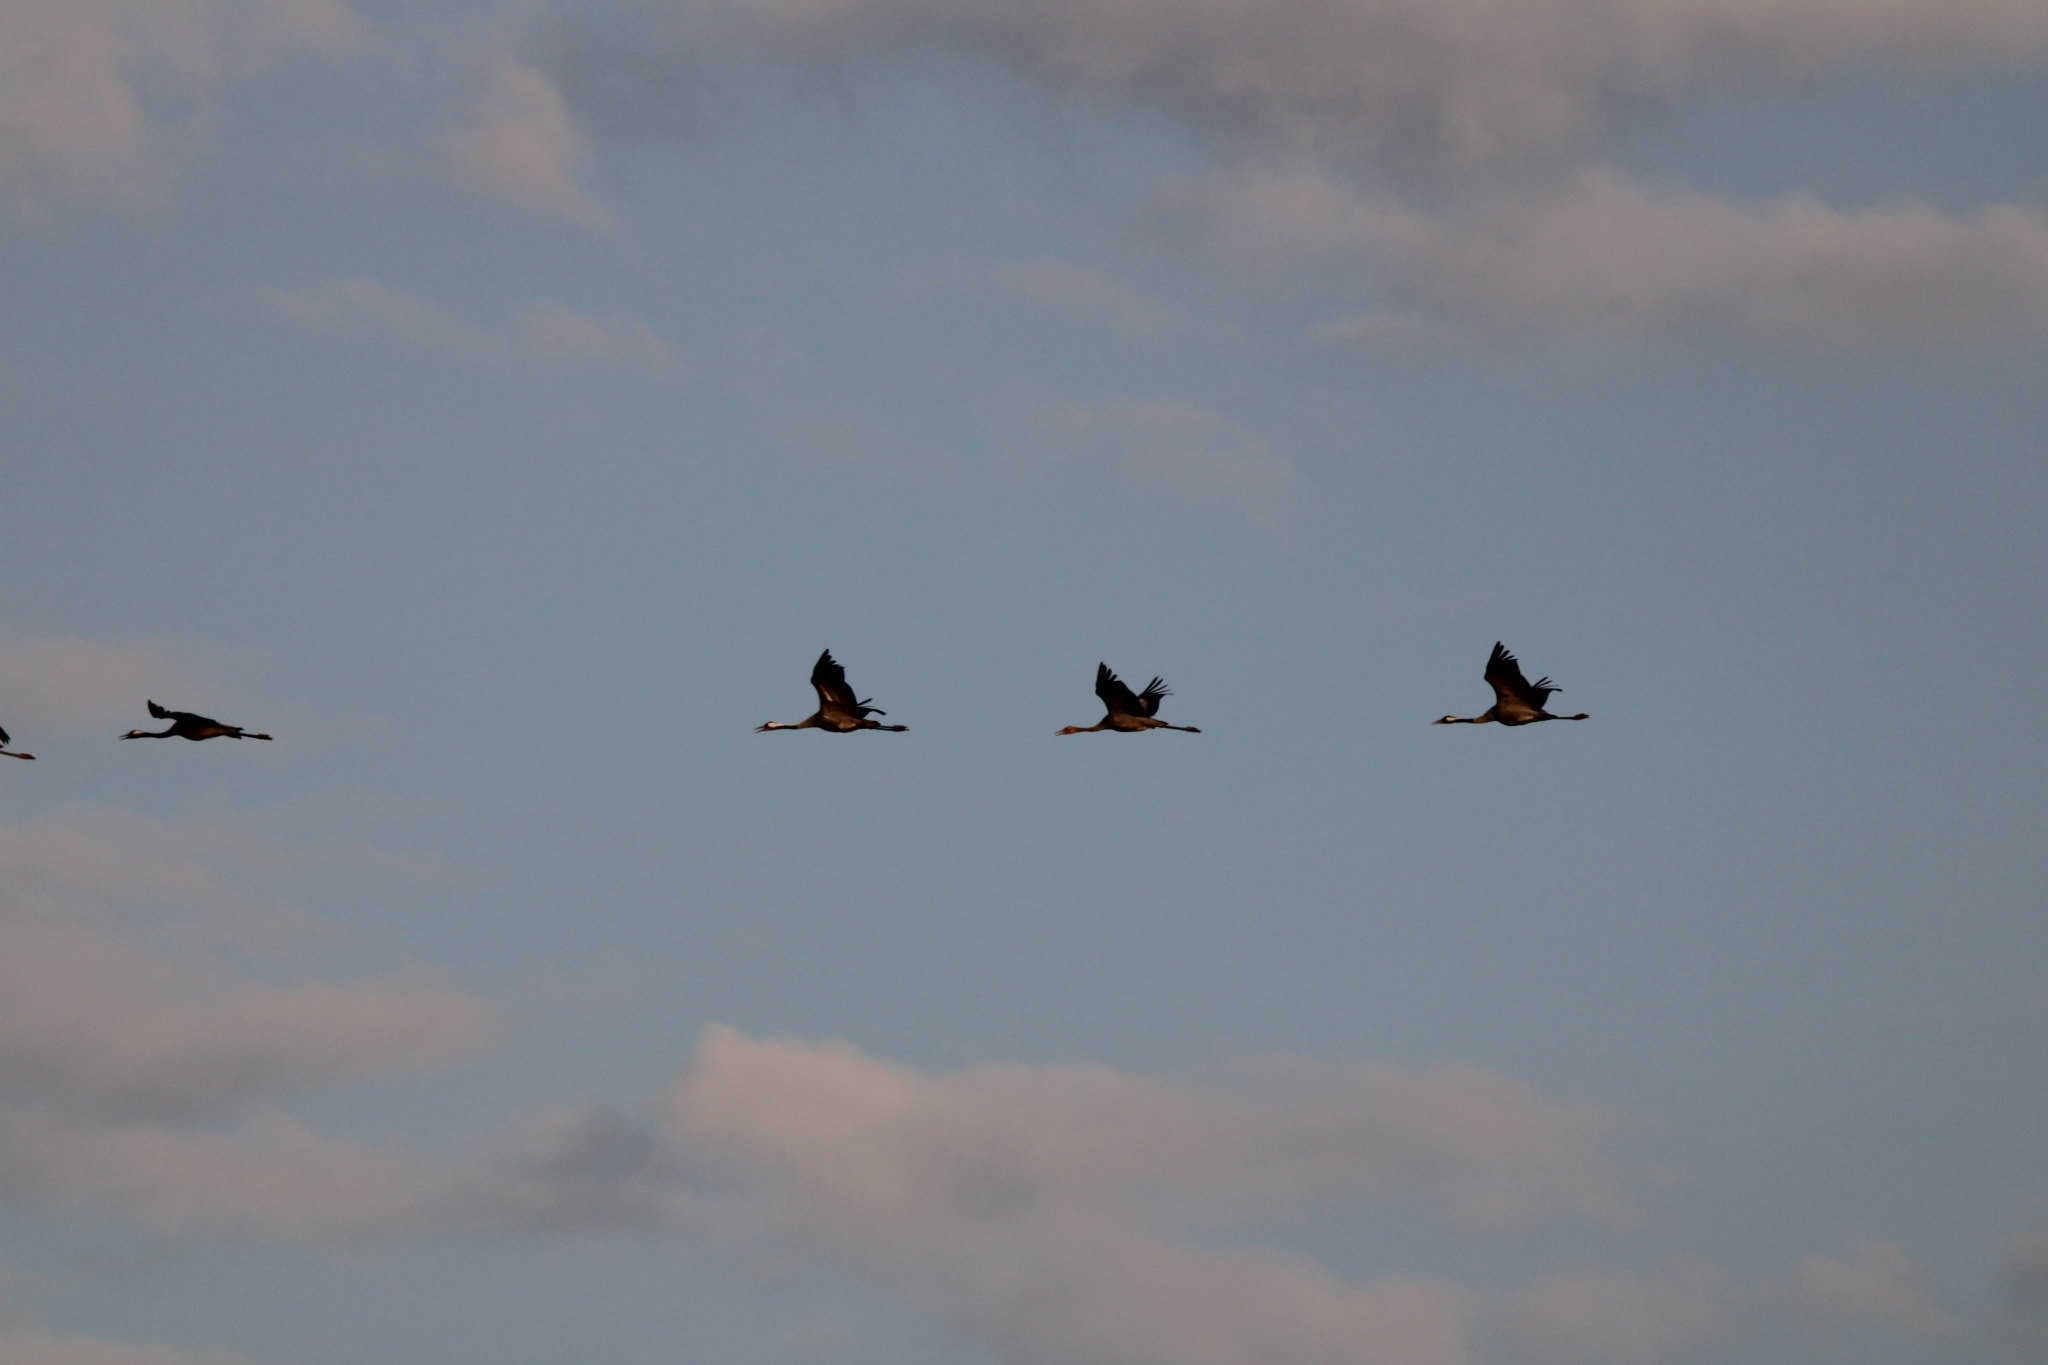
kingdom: Animalia
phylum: Chordata
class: Aves
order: Gruiformes
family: Gruidae
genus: Grus
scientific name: Grus grus
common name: Common crane
